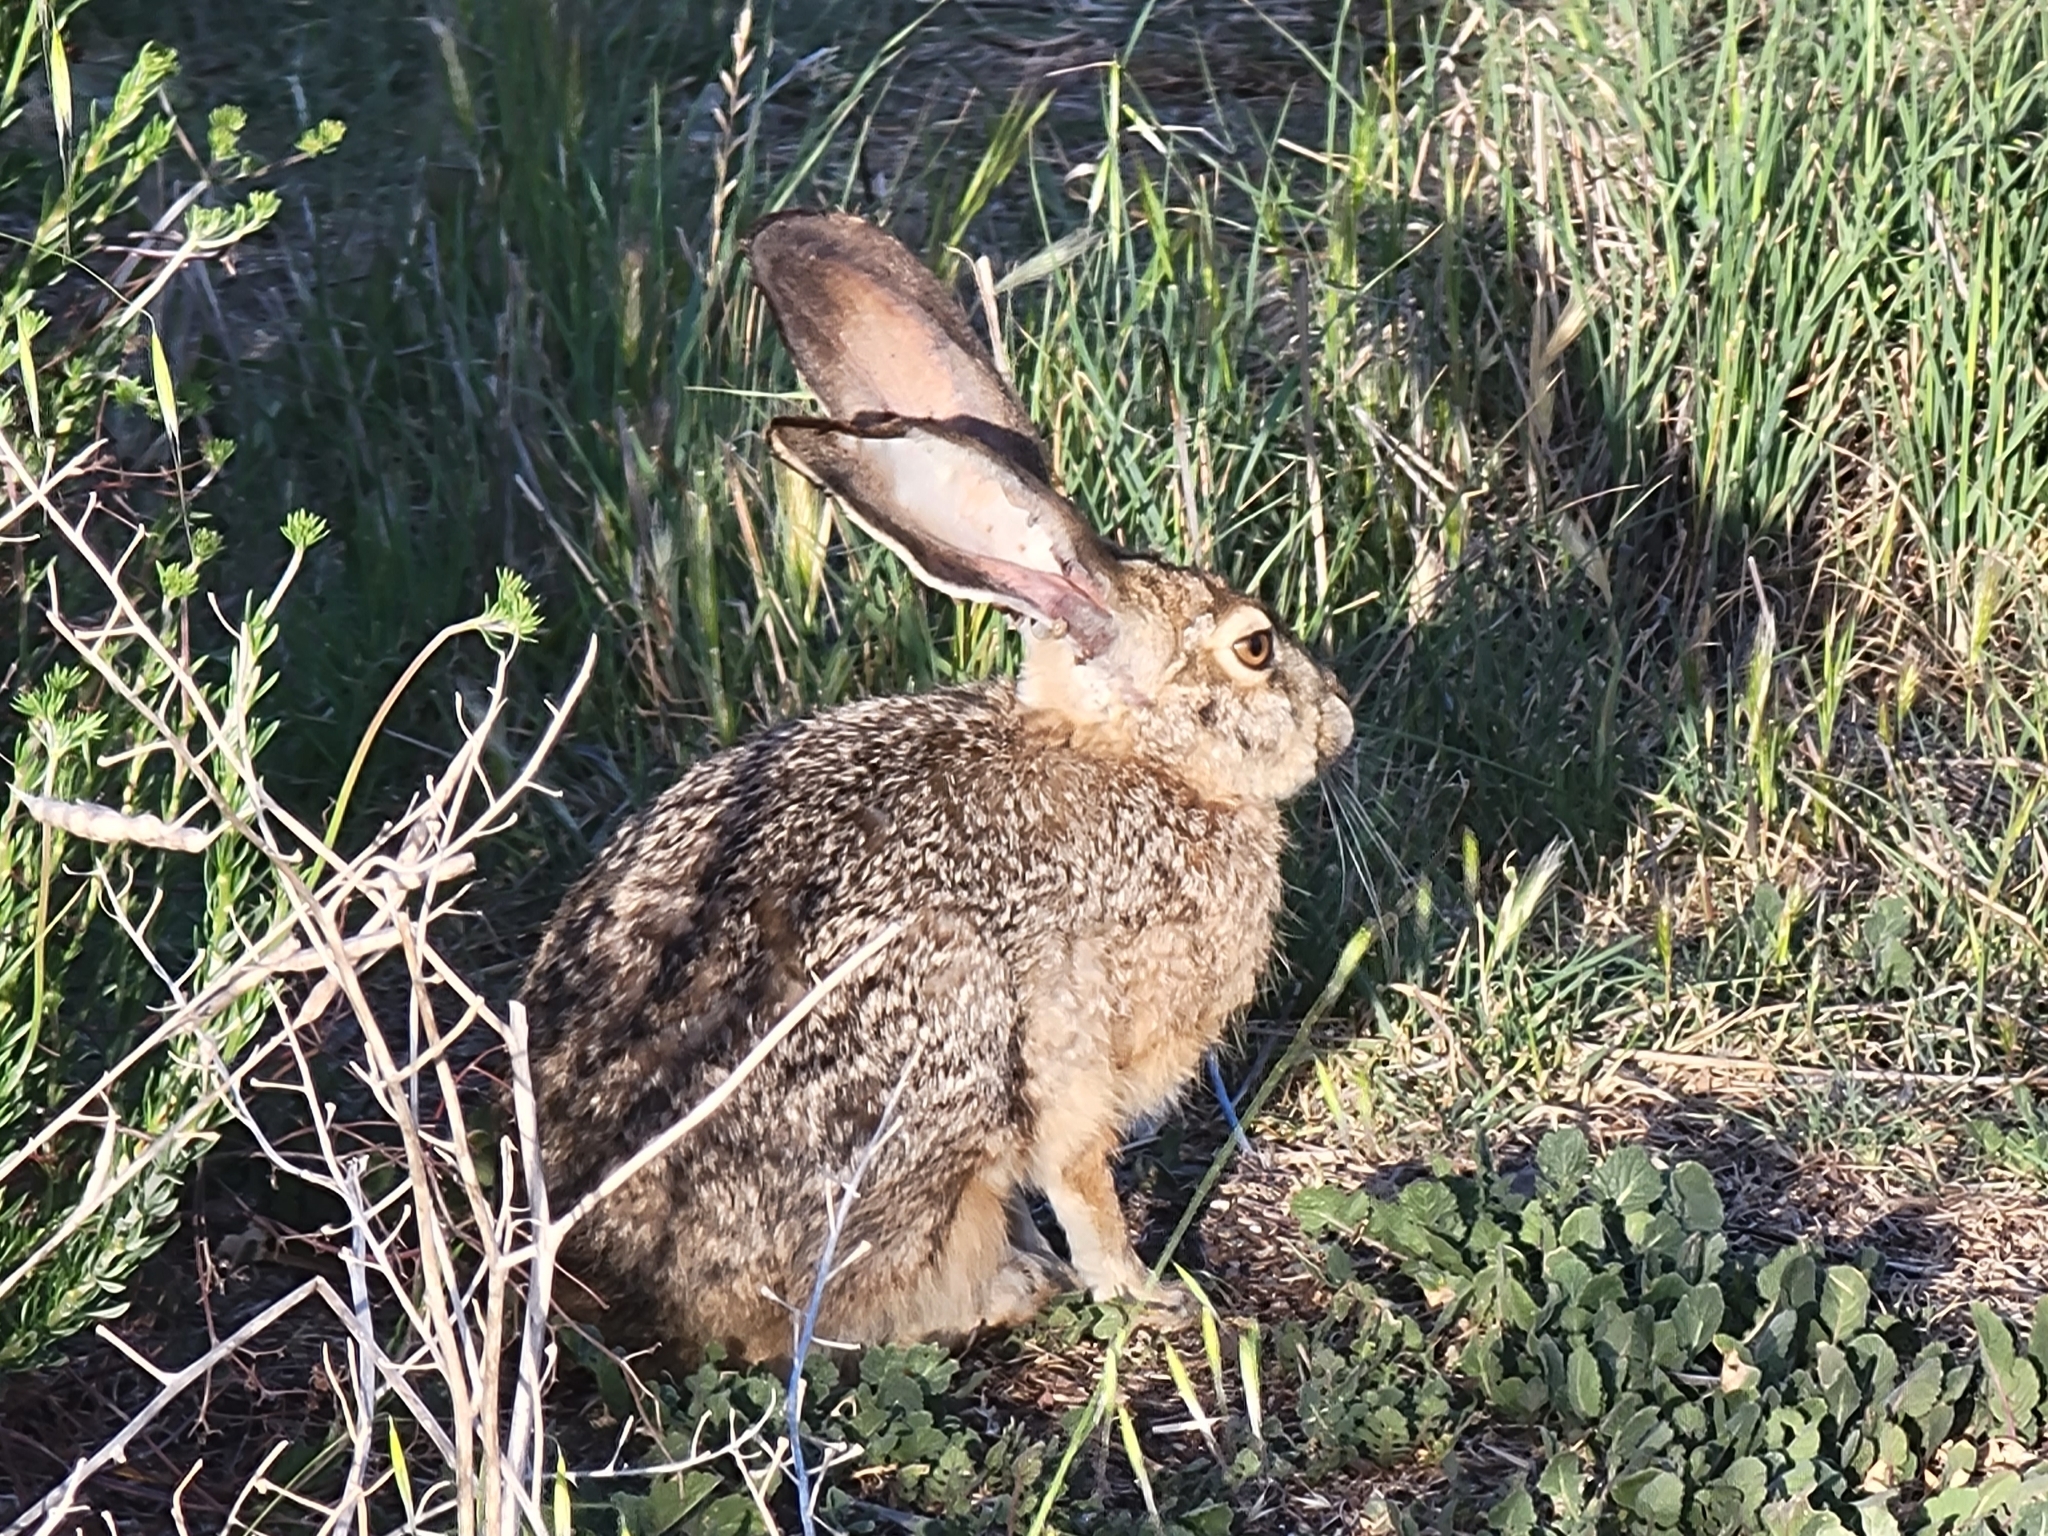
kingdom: Animalia
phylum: Chordata
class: Mammalia
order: Lagomorpha
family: Leporidae
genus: Lepus
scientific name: Lepus californicus
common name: Black-tailed jackrabbit
